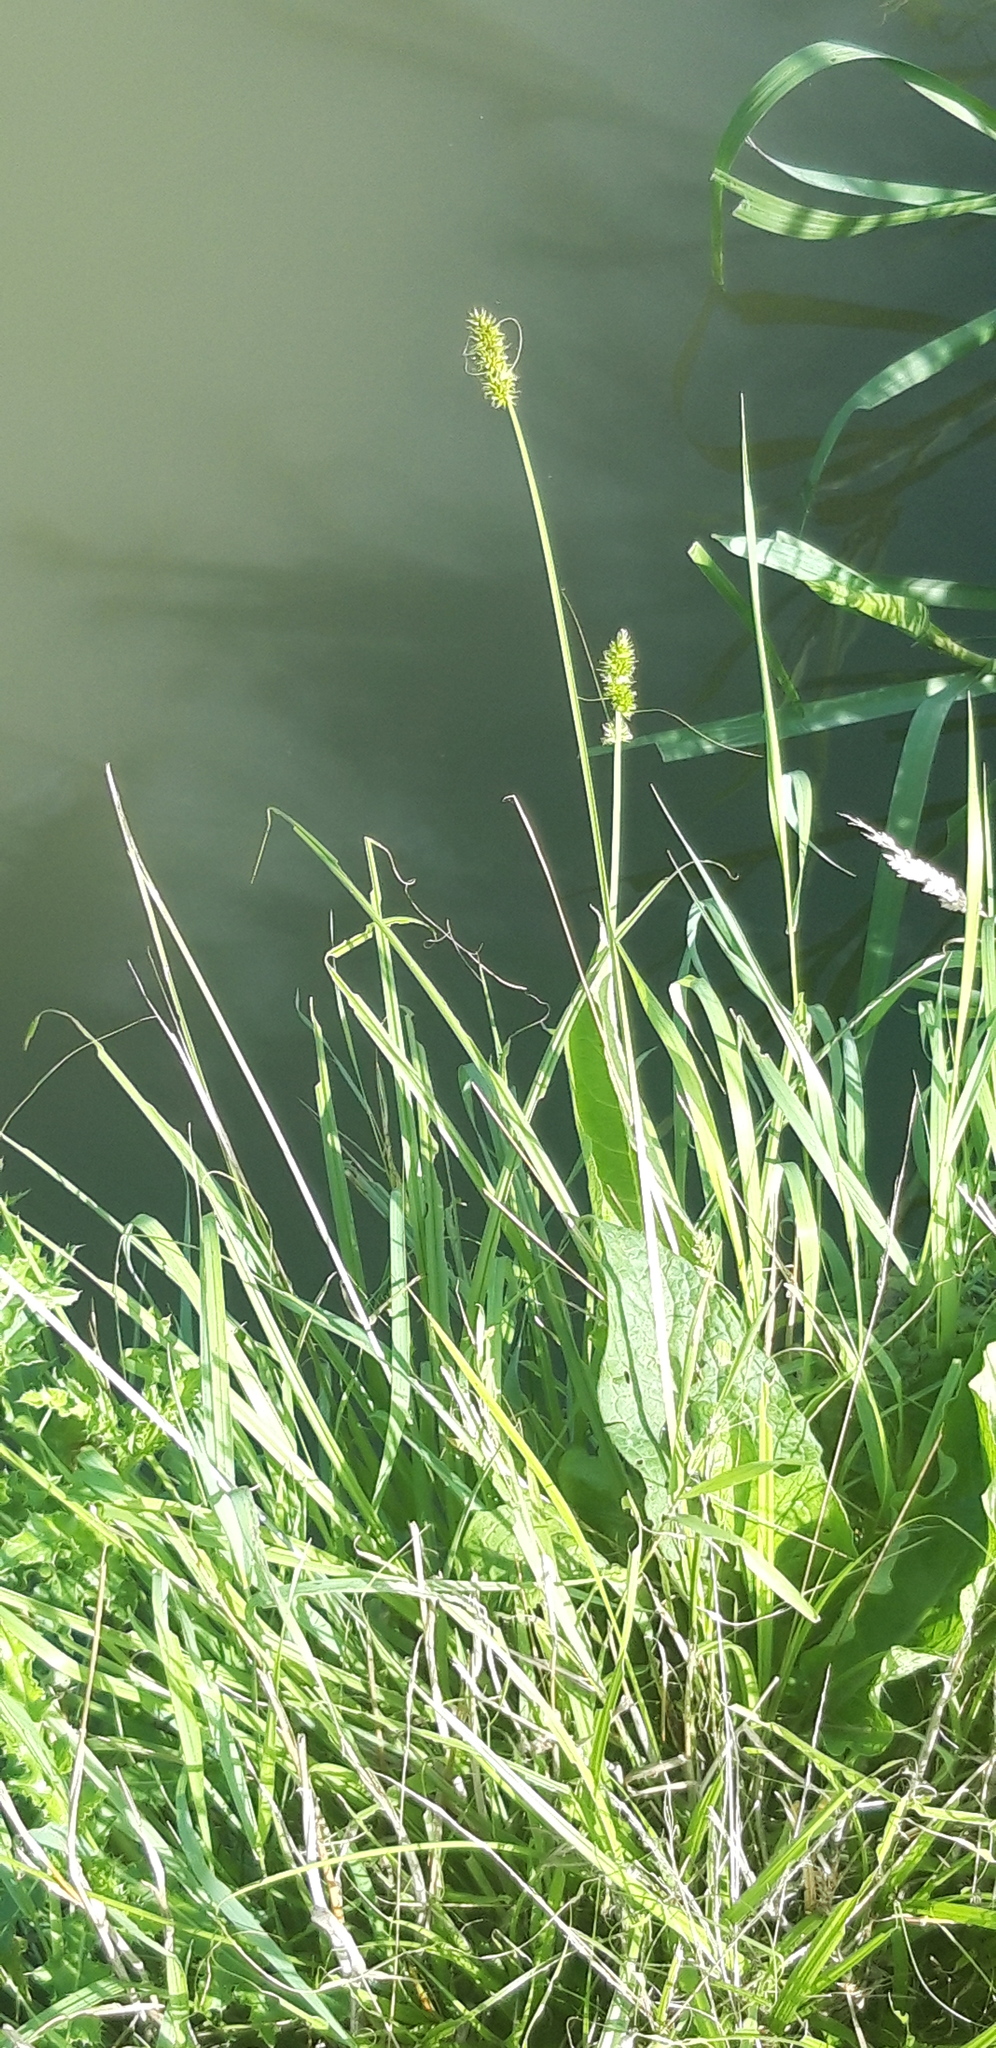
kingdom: Plantae
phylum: Tracheophyta
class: Liliopsida
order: Poales
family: Cyperaceae
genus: Carex
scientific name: Carex otrubae
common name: False fox-sedge
